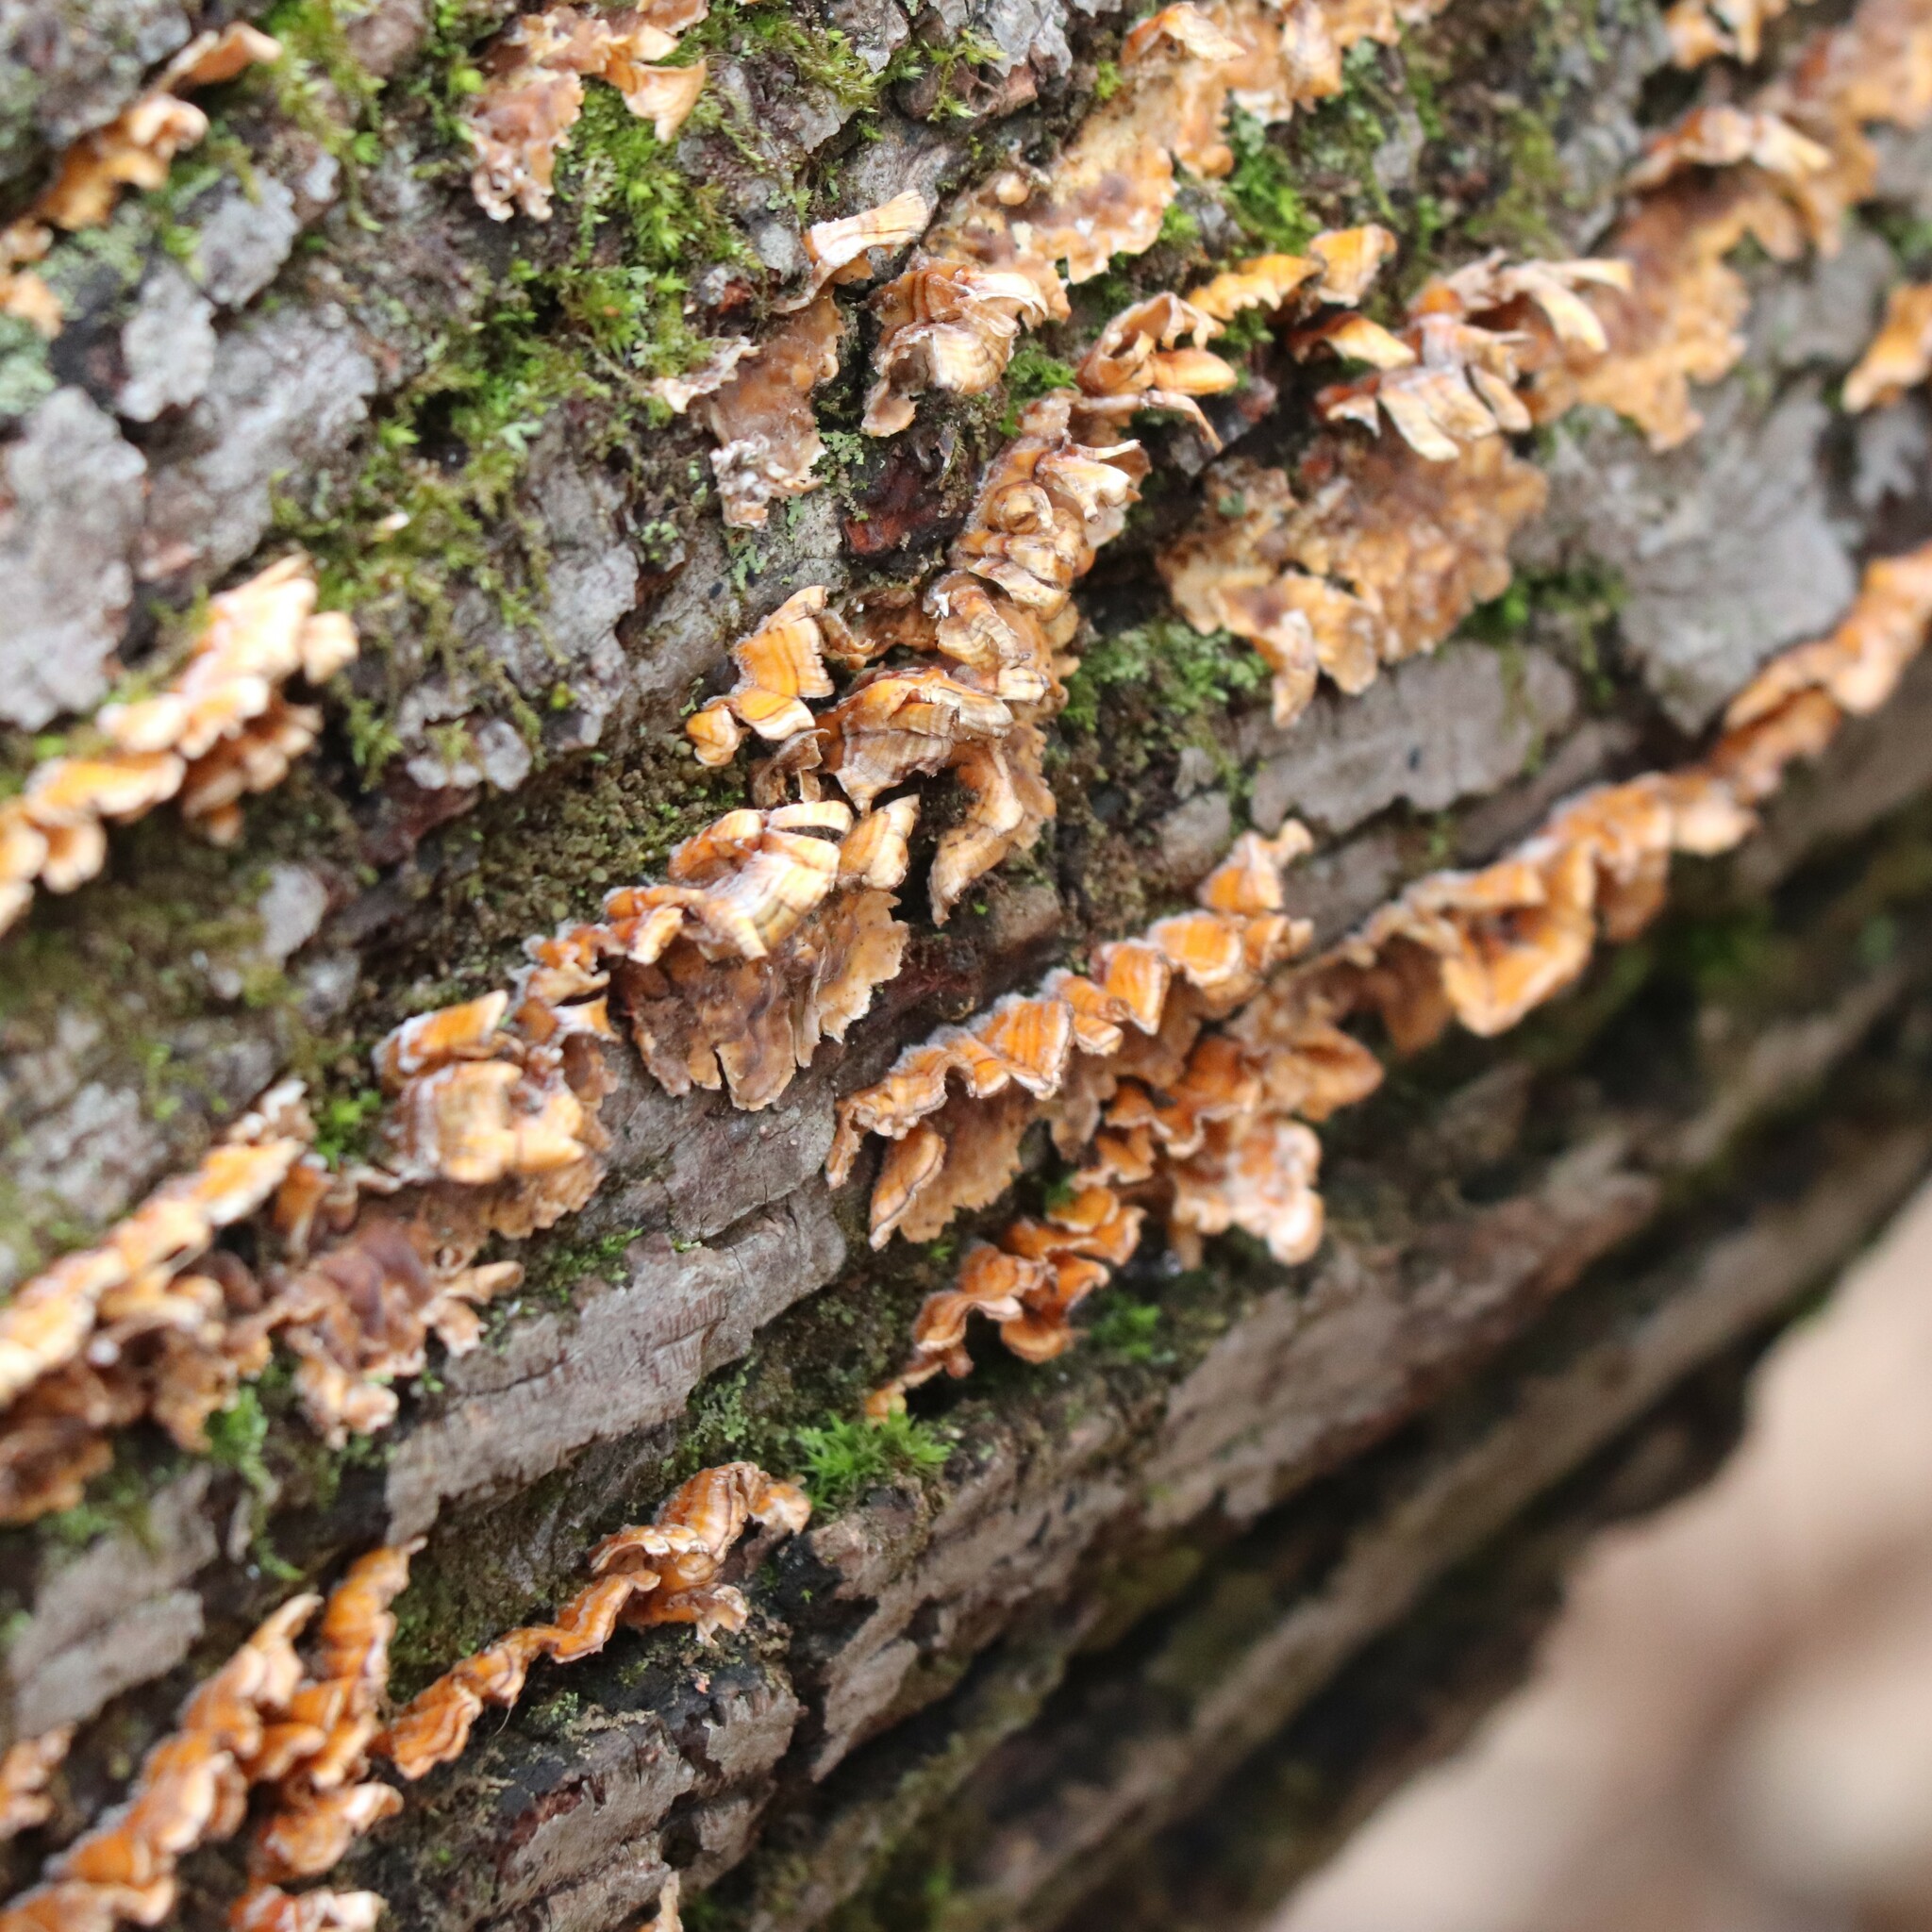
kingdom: Fungi
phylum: Basidiomycota
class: Agaricomycetes
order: Russulales
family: Stereaceae
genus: Stereum
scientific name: Stereum complicatum
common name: Crowded parchment
